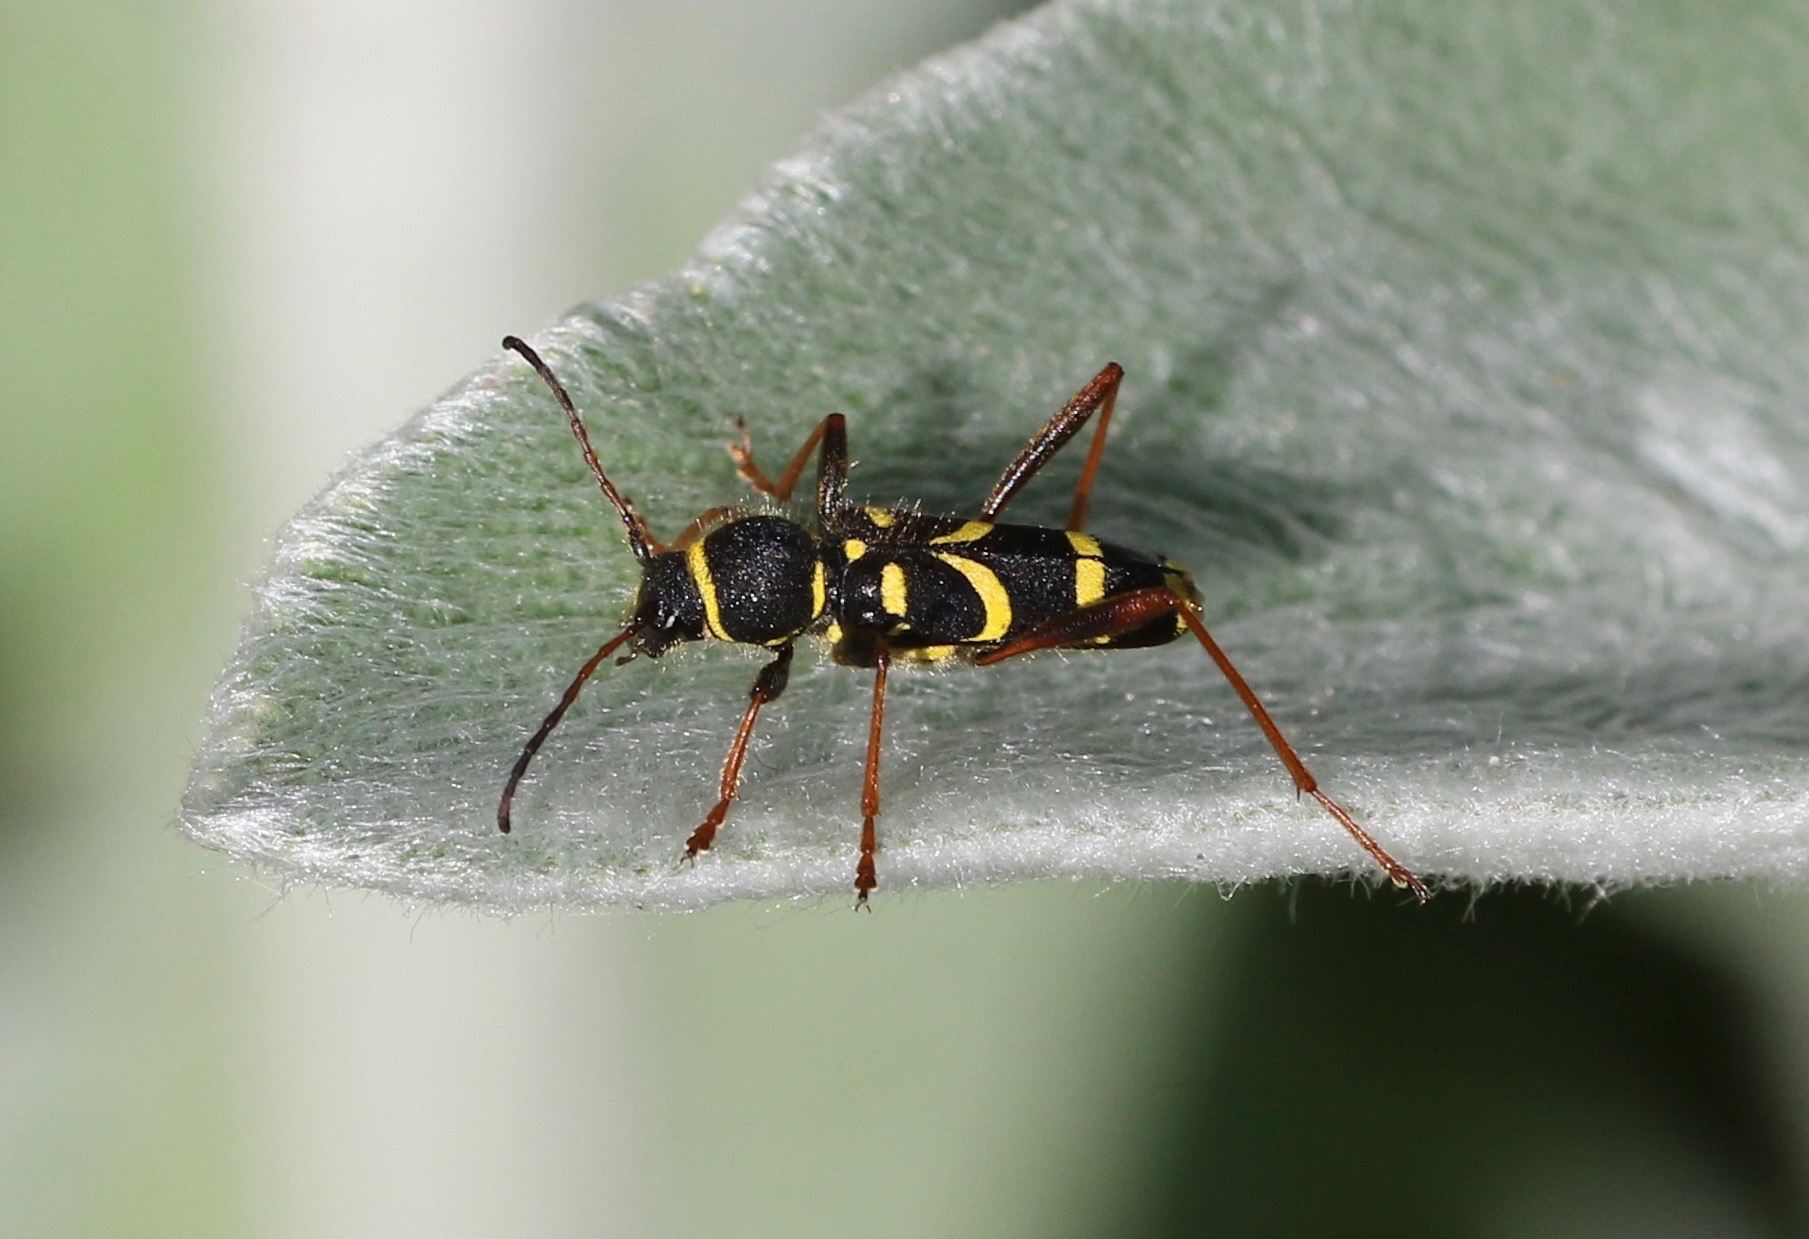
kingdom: Animalia
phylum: Arthropoda
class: Insecta
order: Coleoptera
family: Cerambycidae
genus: Clytus
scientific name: Clytus arietis
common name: Wasp beetle
